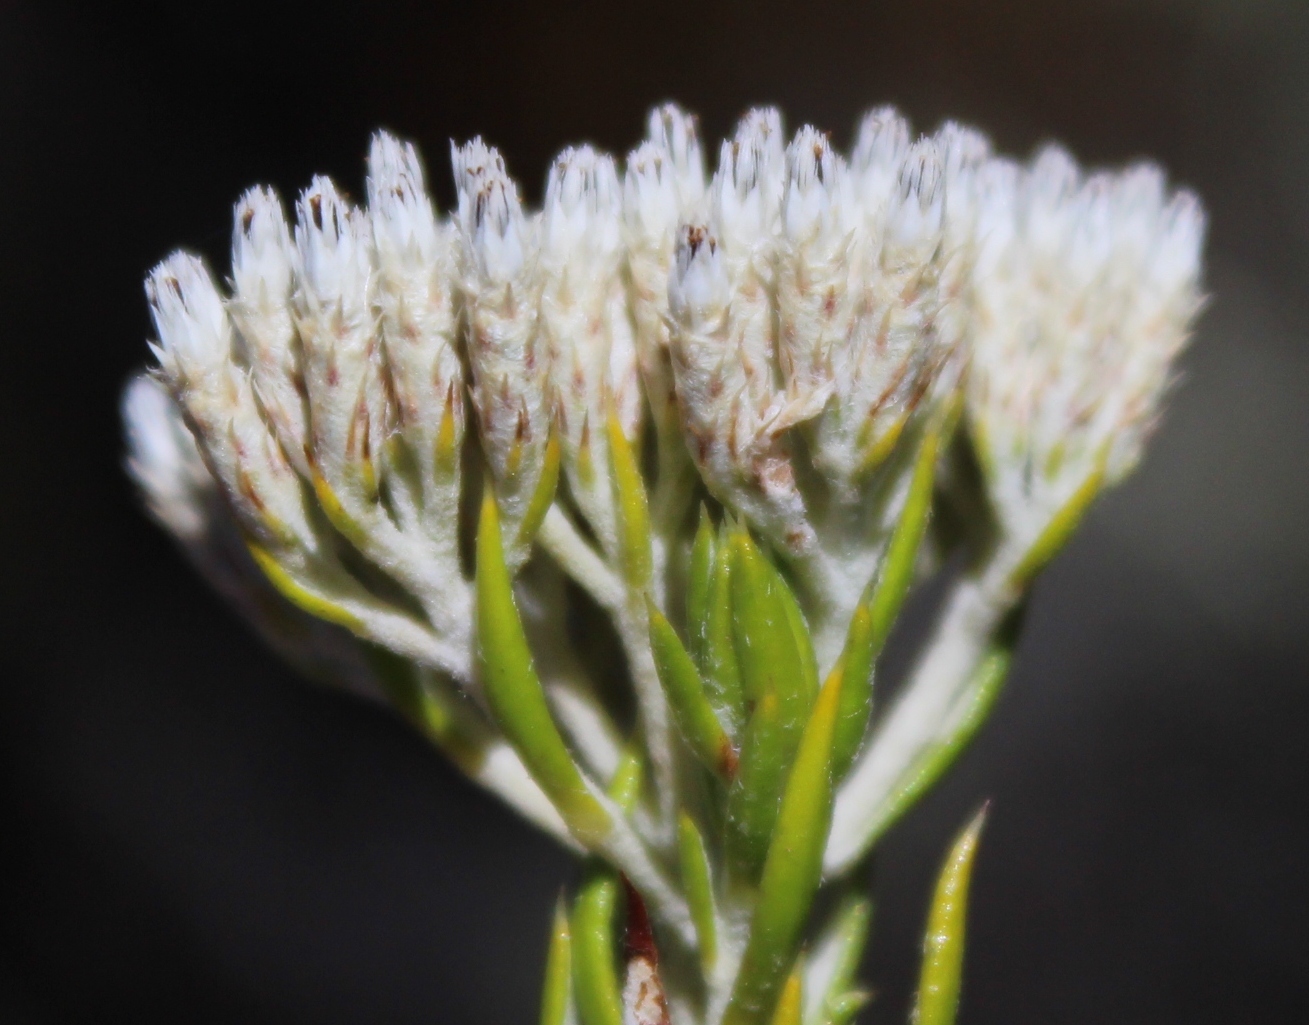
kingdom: Plantae
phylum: Tracheophyta
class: Magnoliopsida
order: Asterales
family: Asteraceae
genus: Metalasia
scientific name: Metalasia pungens
